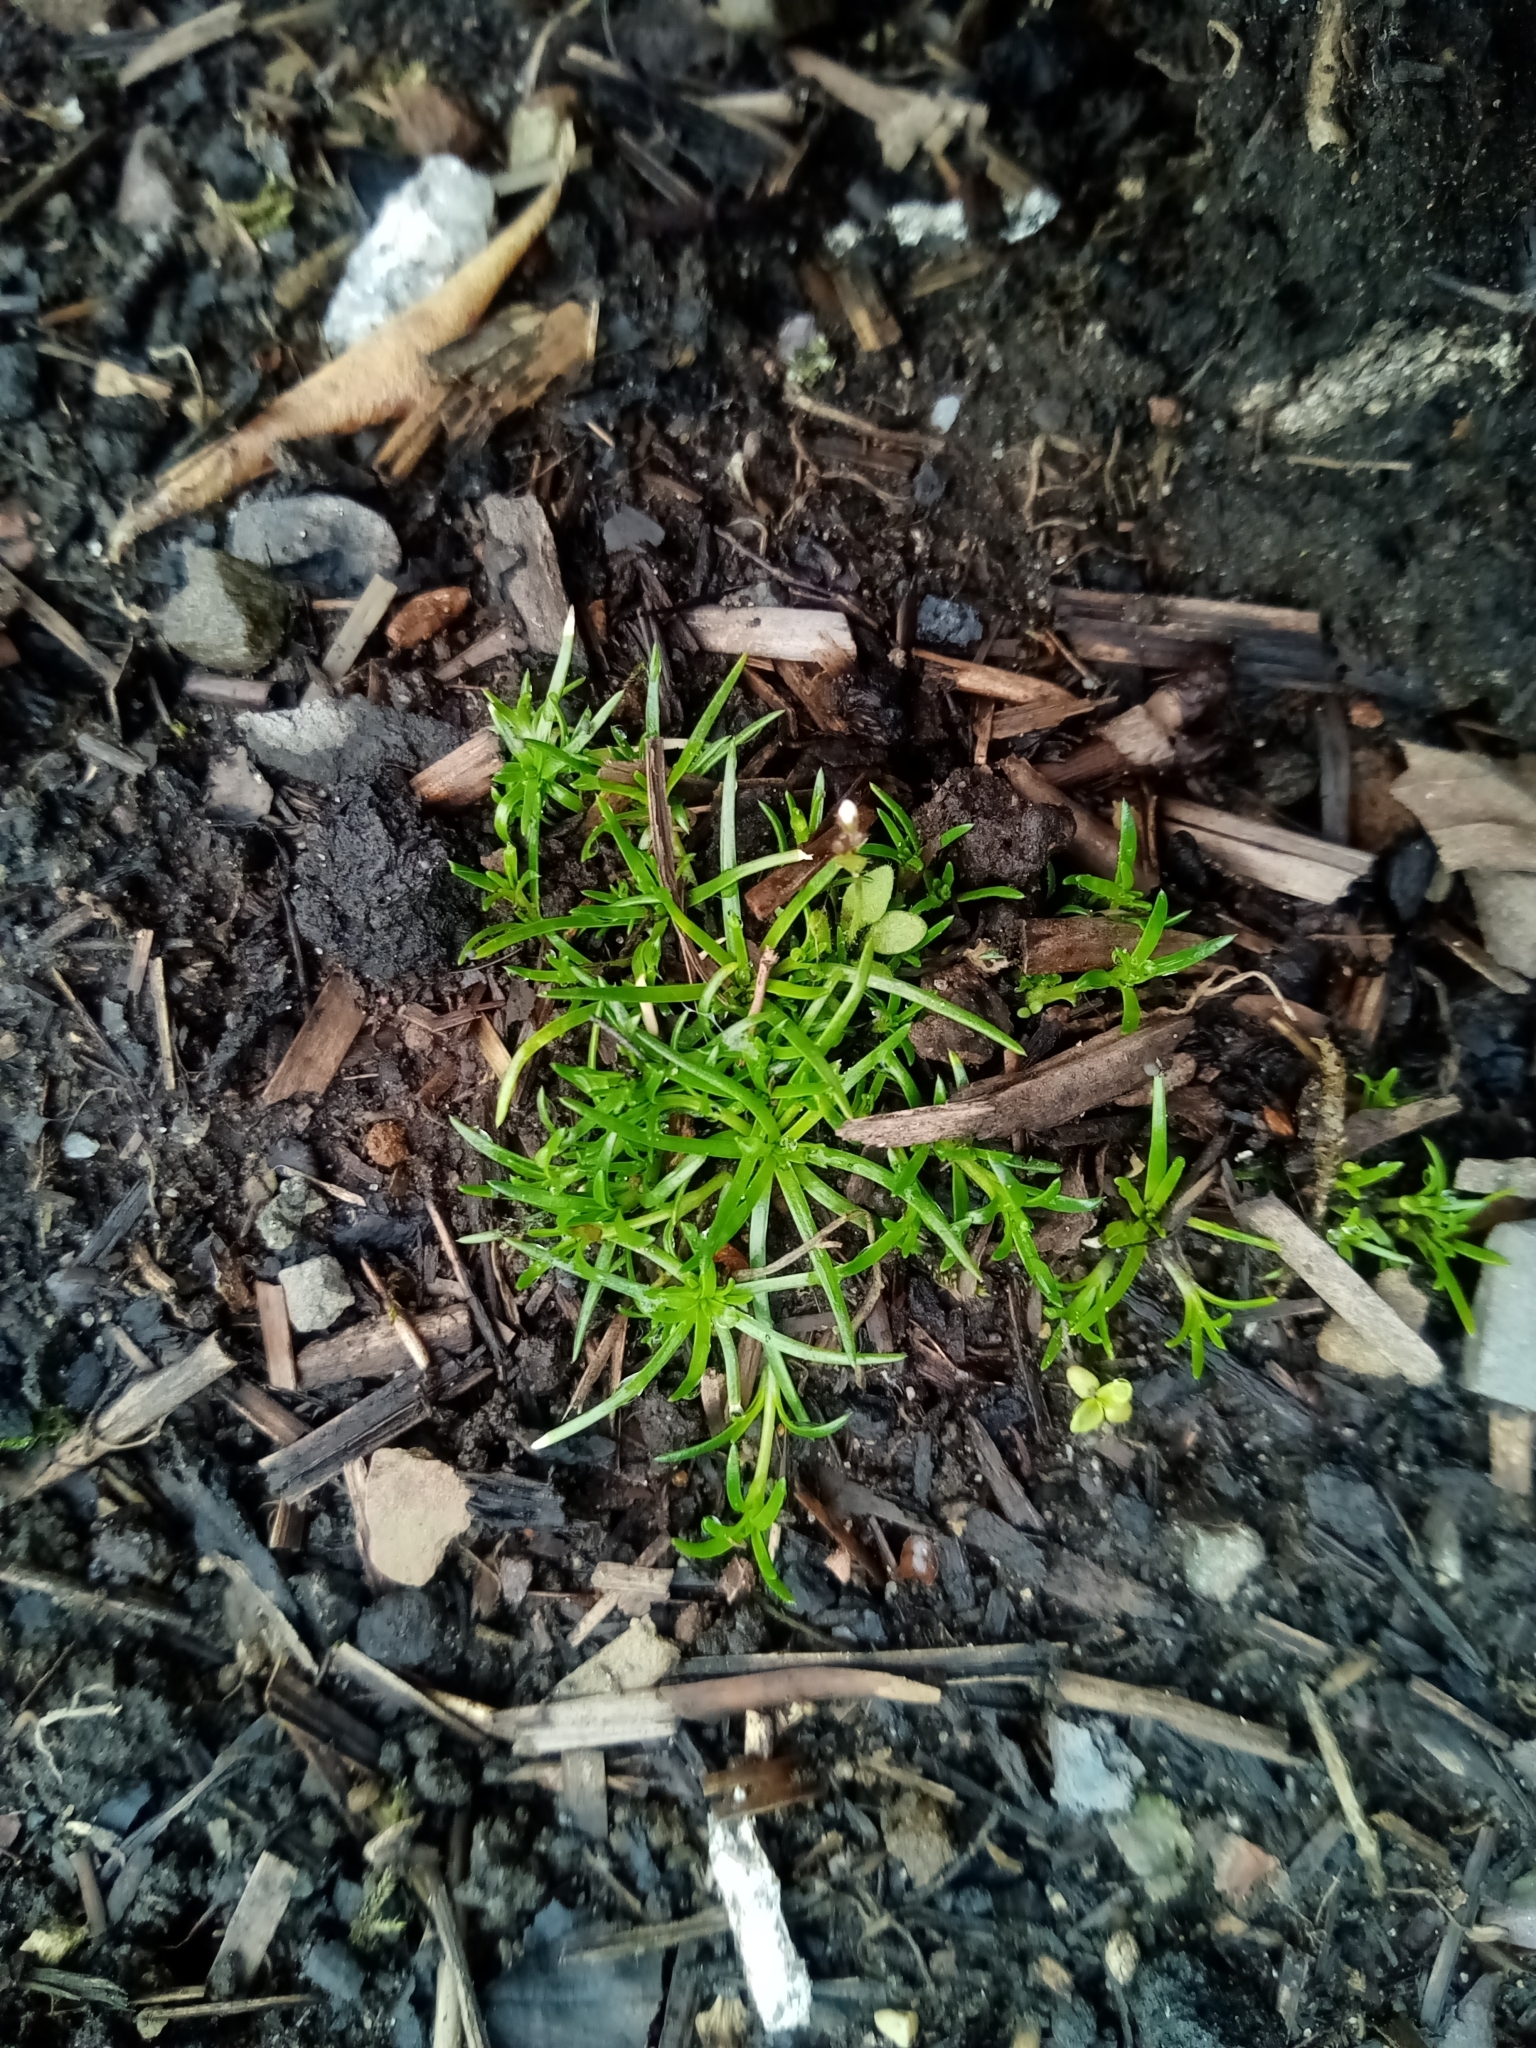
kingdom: Plantae
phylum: Tracheophyta
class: Magnoliopsida
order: Caryophyllales
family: Caryophyllaceae
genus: Sagina
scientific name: Sagina procumbens
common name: Procumbent pearlwort
